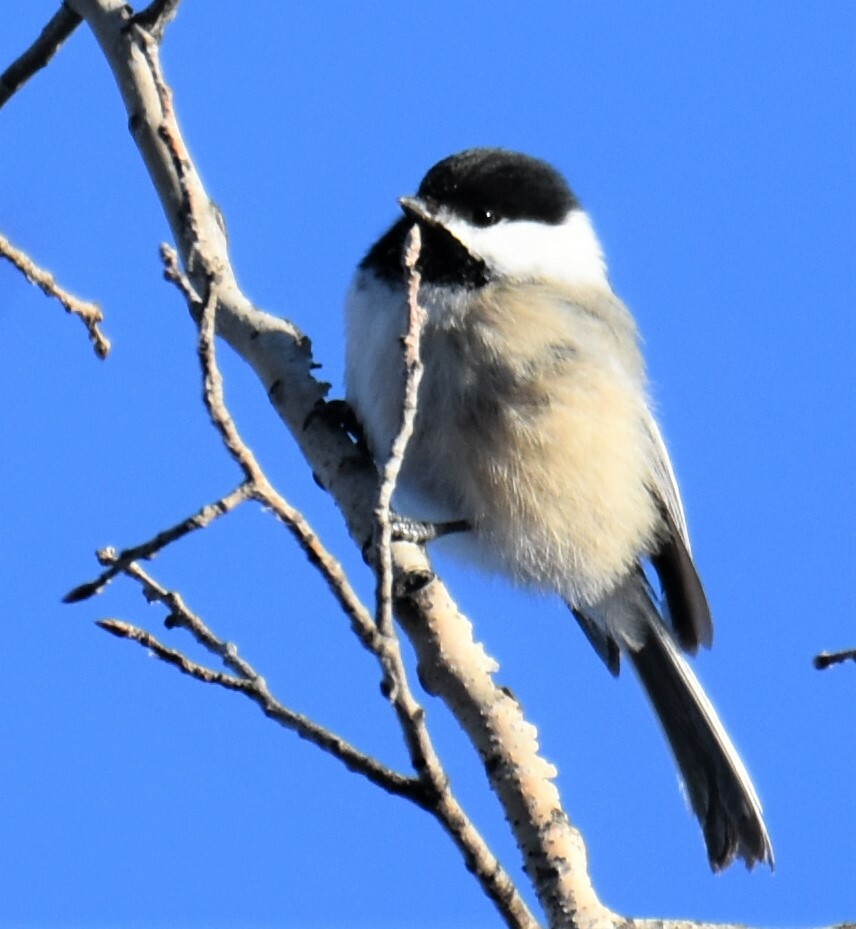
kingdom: Animalia
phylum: Chordata
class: Aves
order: Passeriformes
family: Paridae
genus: Poecile
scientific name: Poecile atricapillus
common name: Black-capped chickadee
